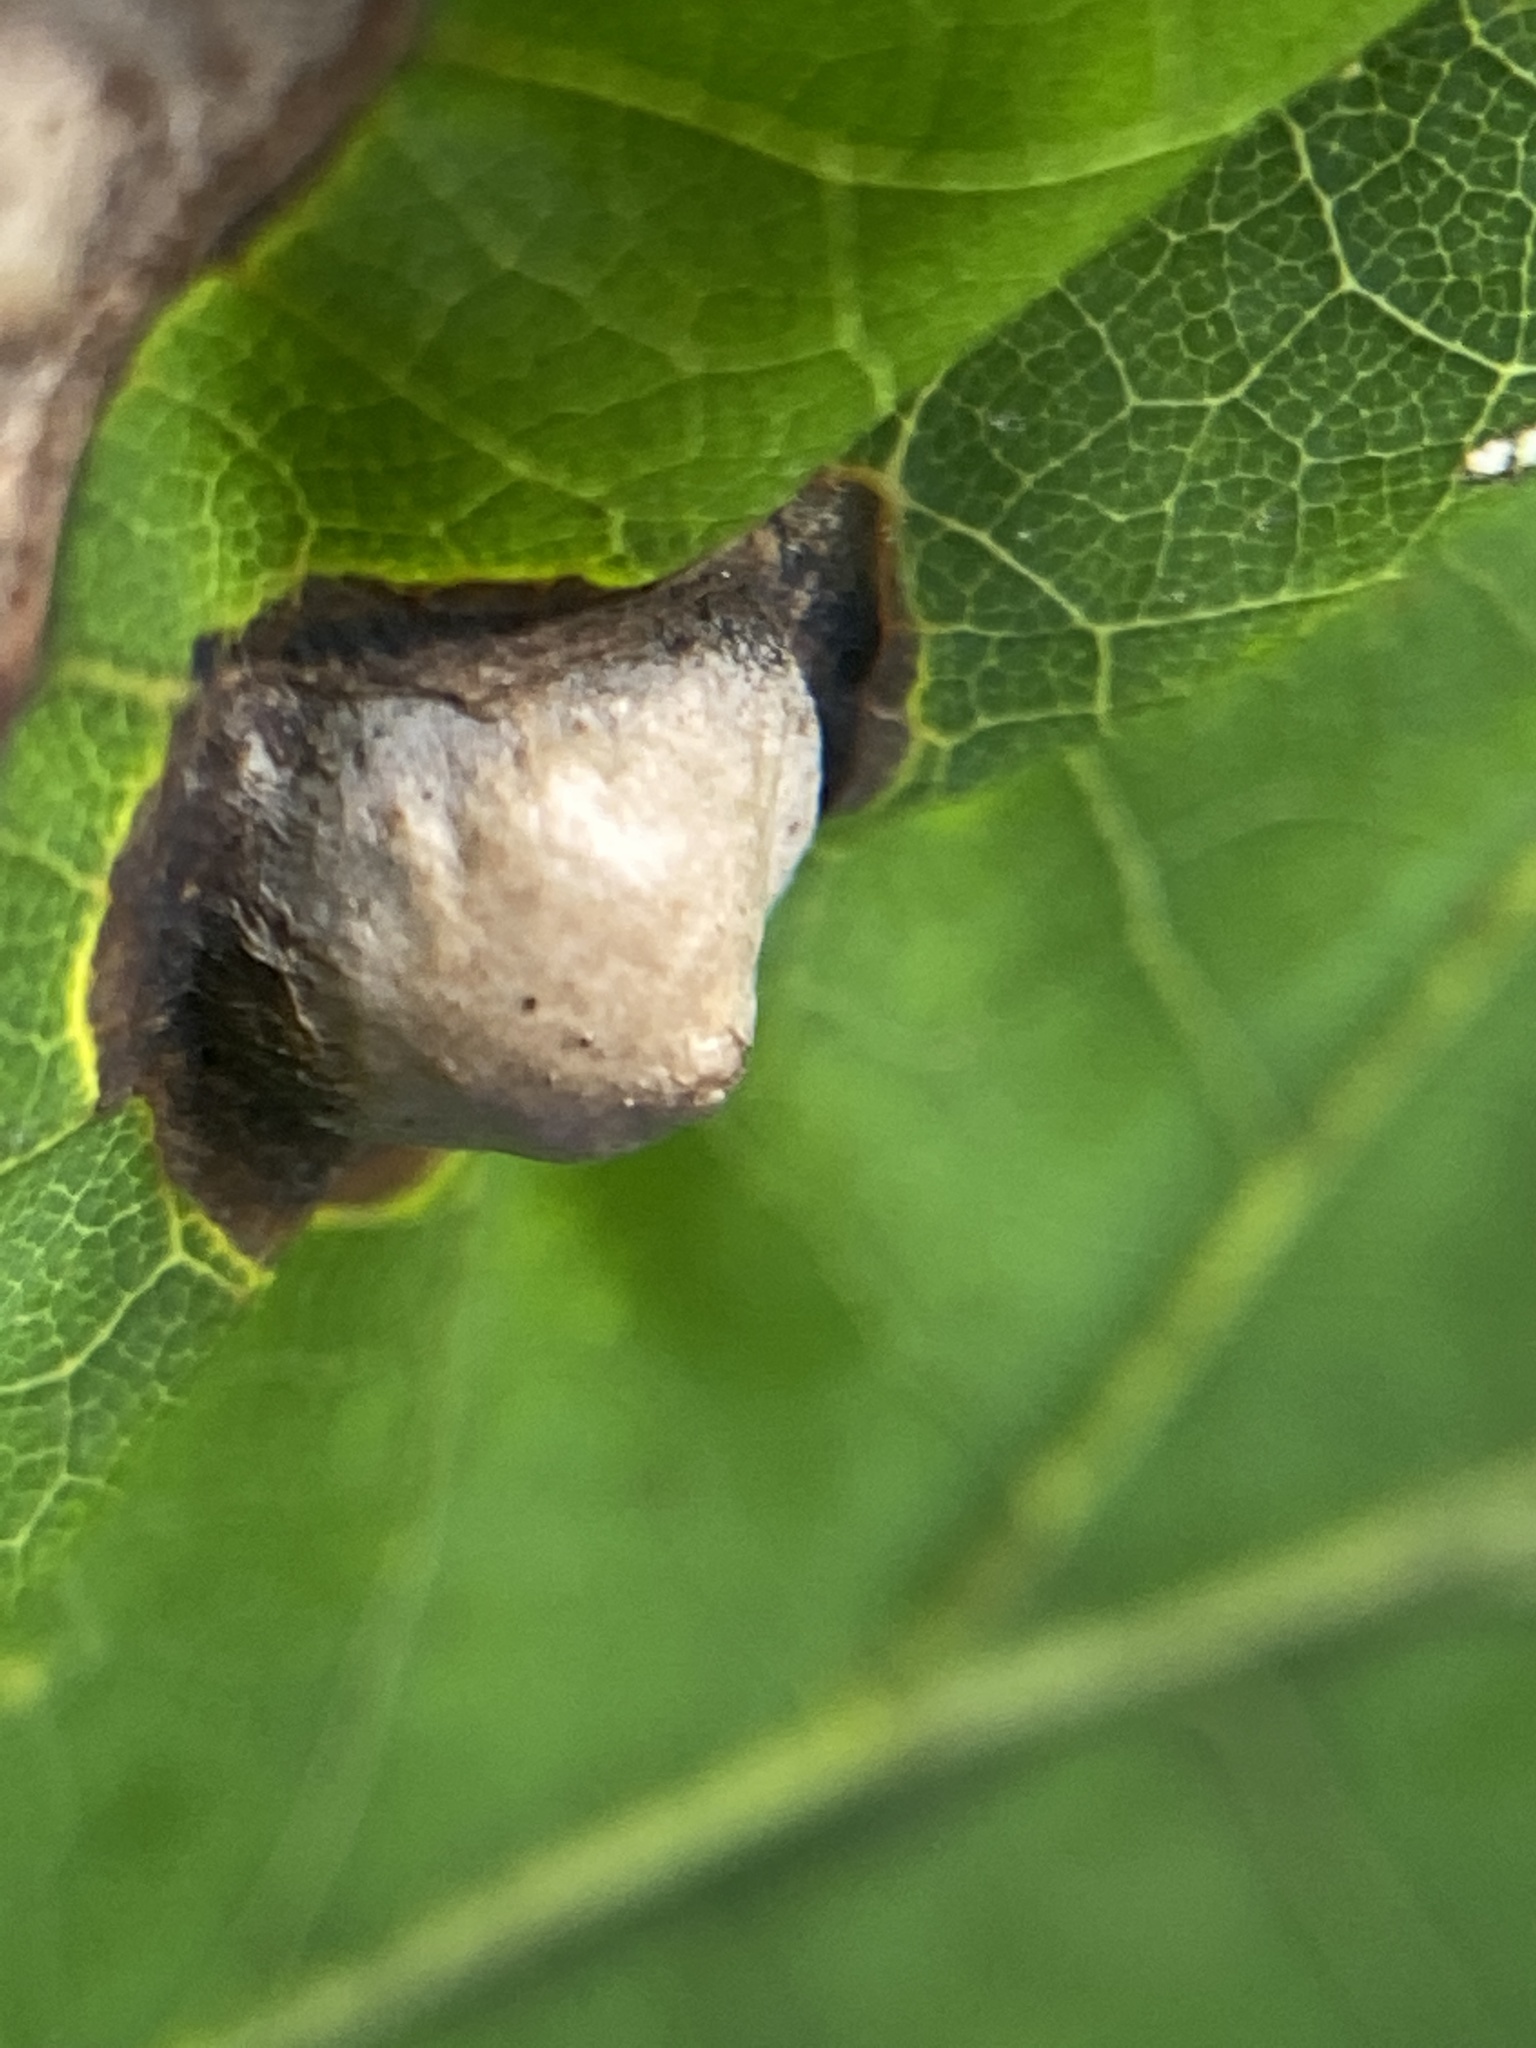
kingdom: Animalia
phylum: Arthropoda
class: Insecta
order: Hymenoptera
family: Cynipidae
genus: Callirhytis
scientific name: Callirhytis
